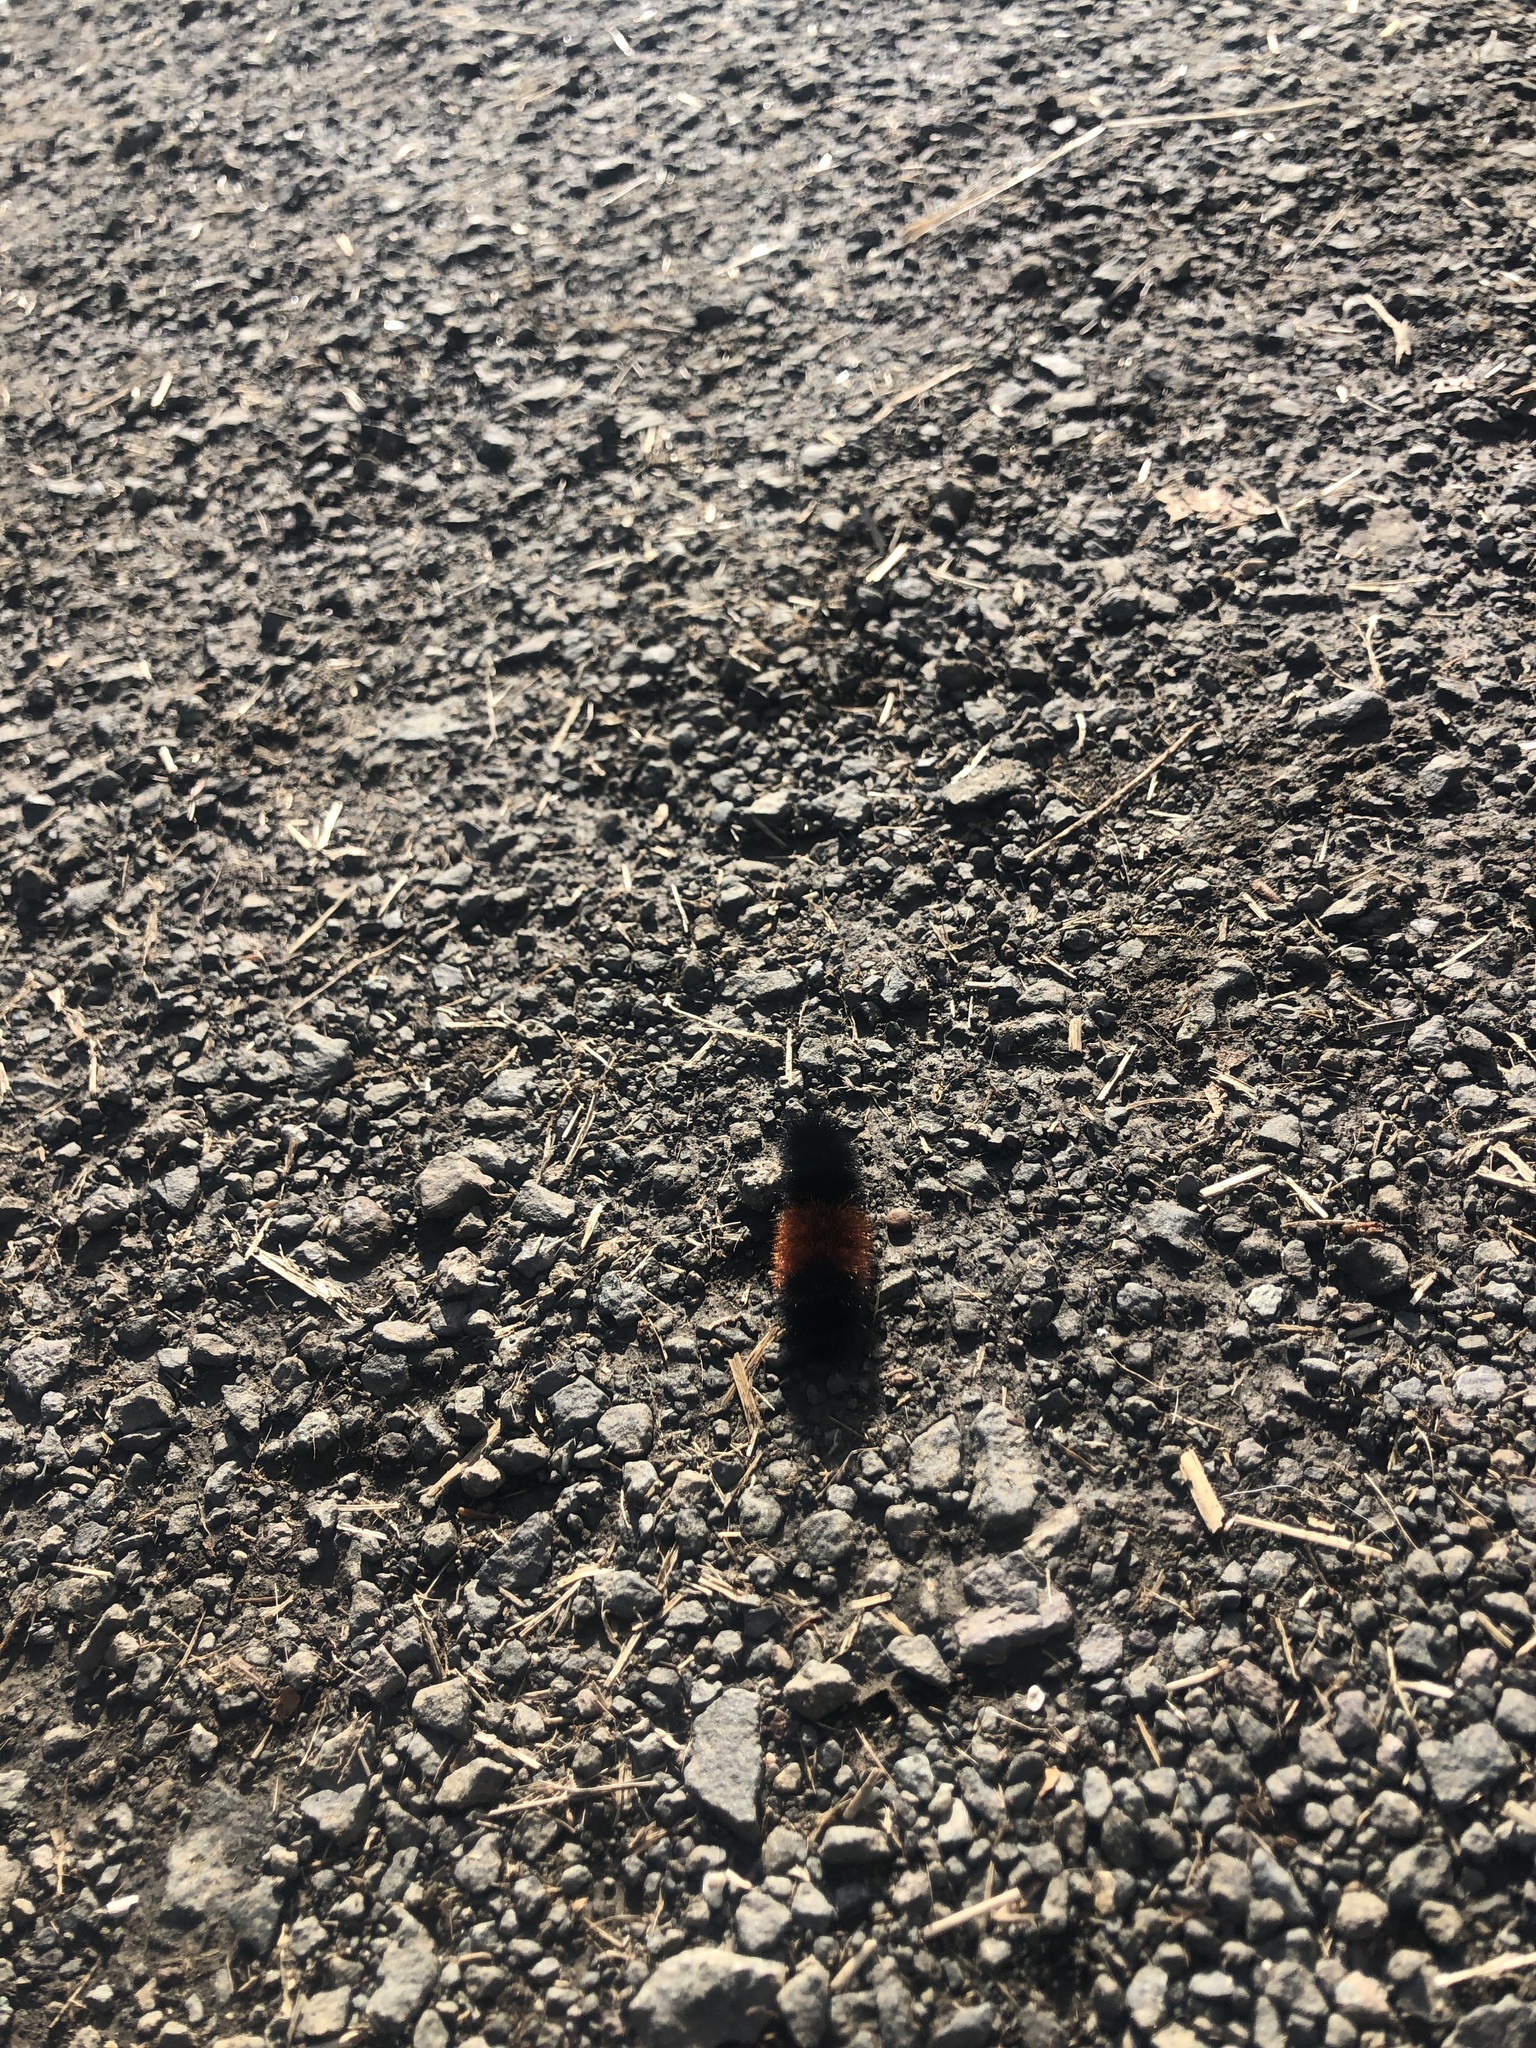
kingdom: Animalia
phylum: Arthropoda
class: Insecta
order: Lepidoptera
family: Erebidae
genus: Pyrrharctia
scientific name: Pyrrharctia isabella
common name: Isabella tiger moth
